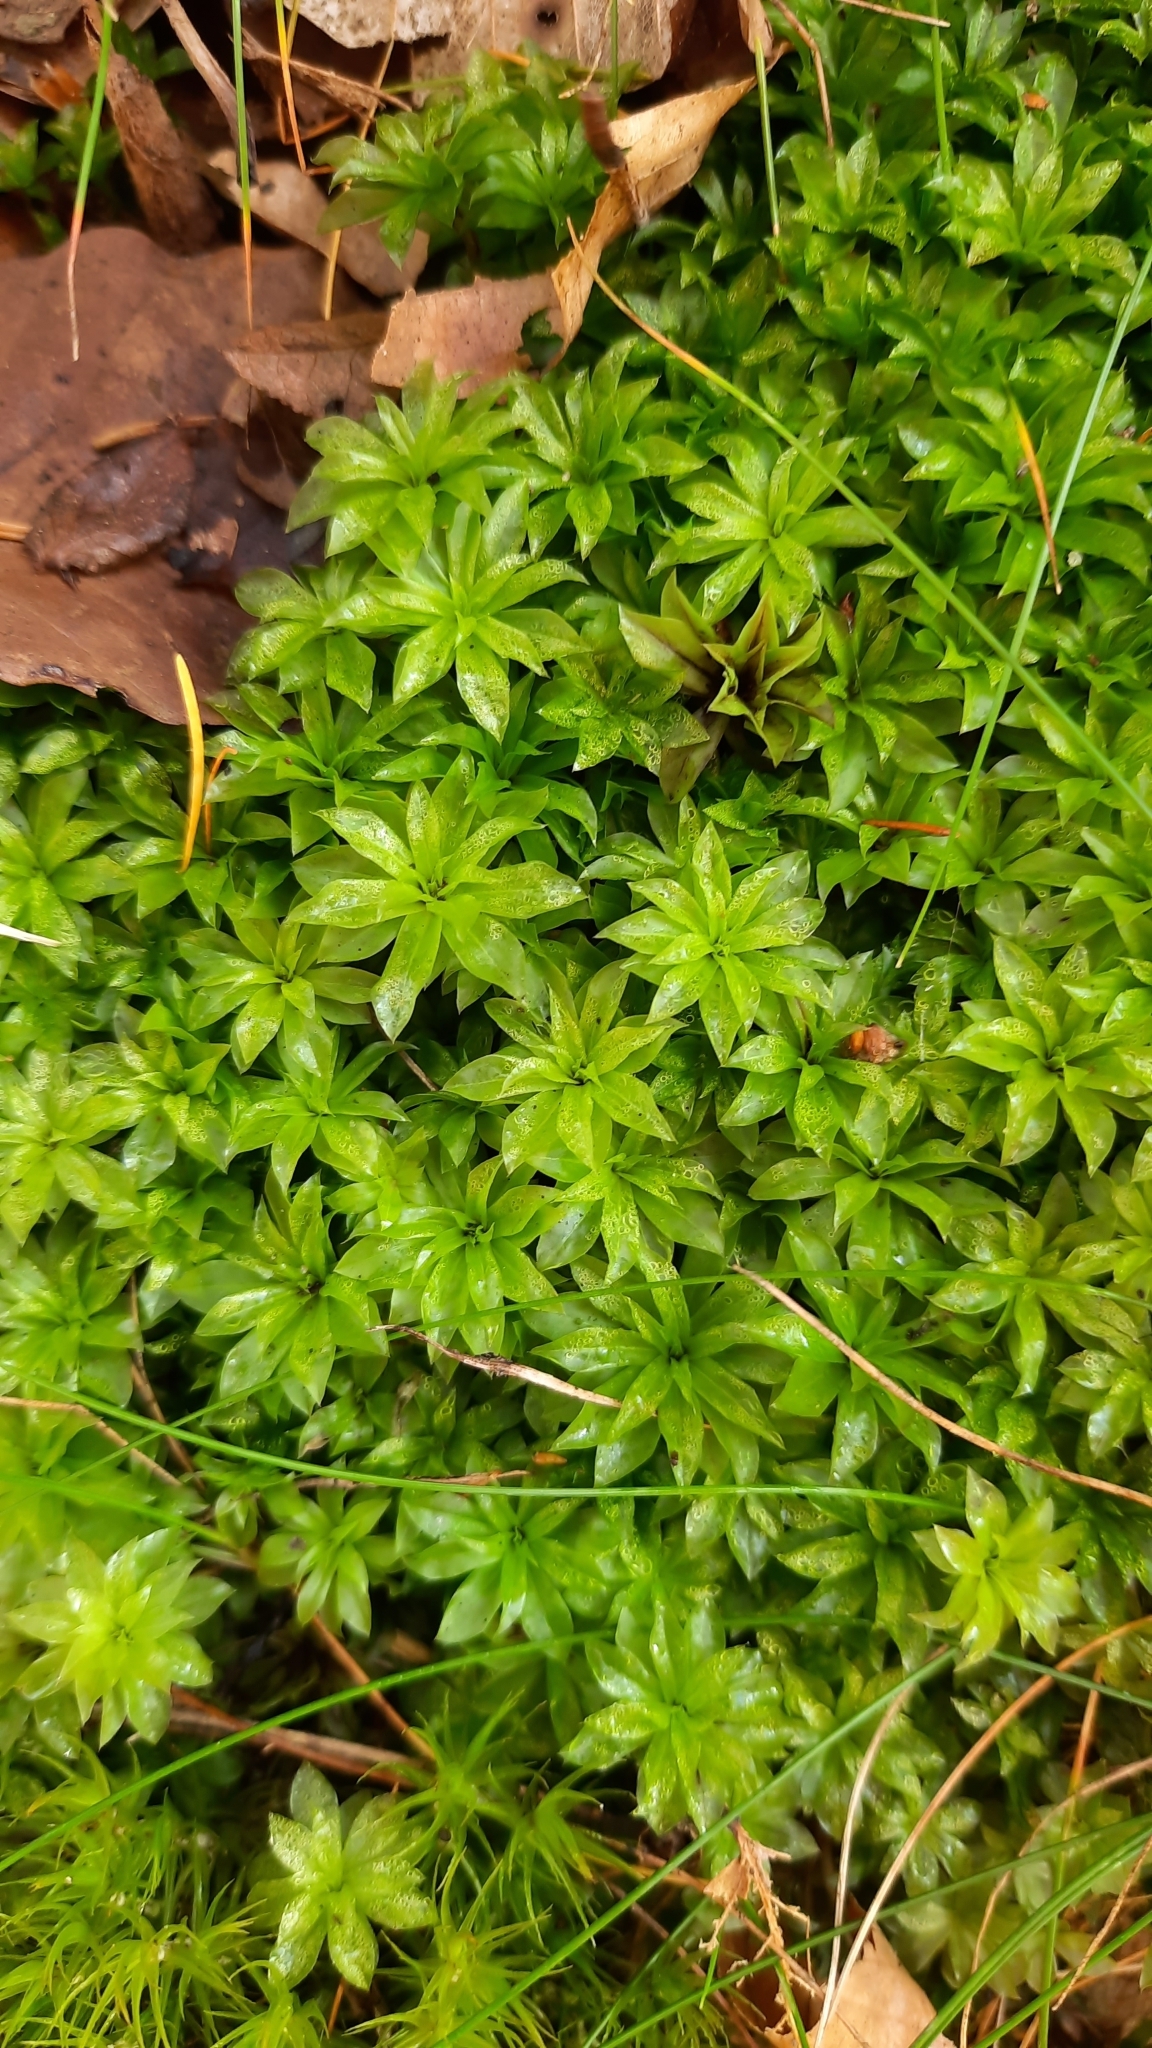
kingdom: Plantae
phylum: Bryophyta
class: Bryopsida
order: Bryales
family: Bryaceae
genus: Rhodobryum
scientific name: Rhodobryum roseum
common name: Rose-moss
